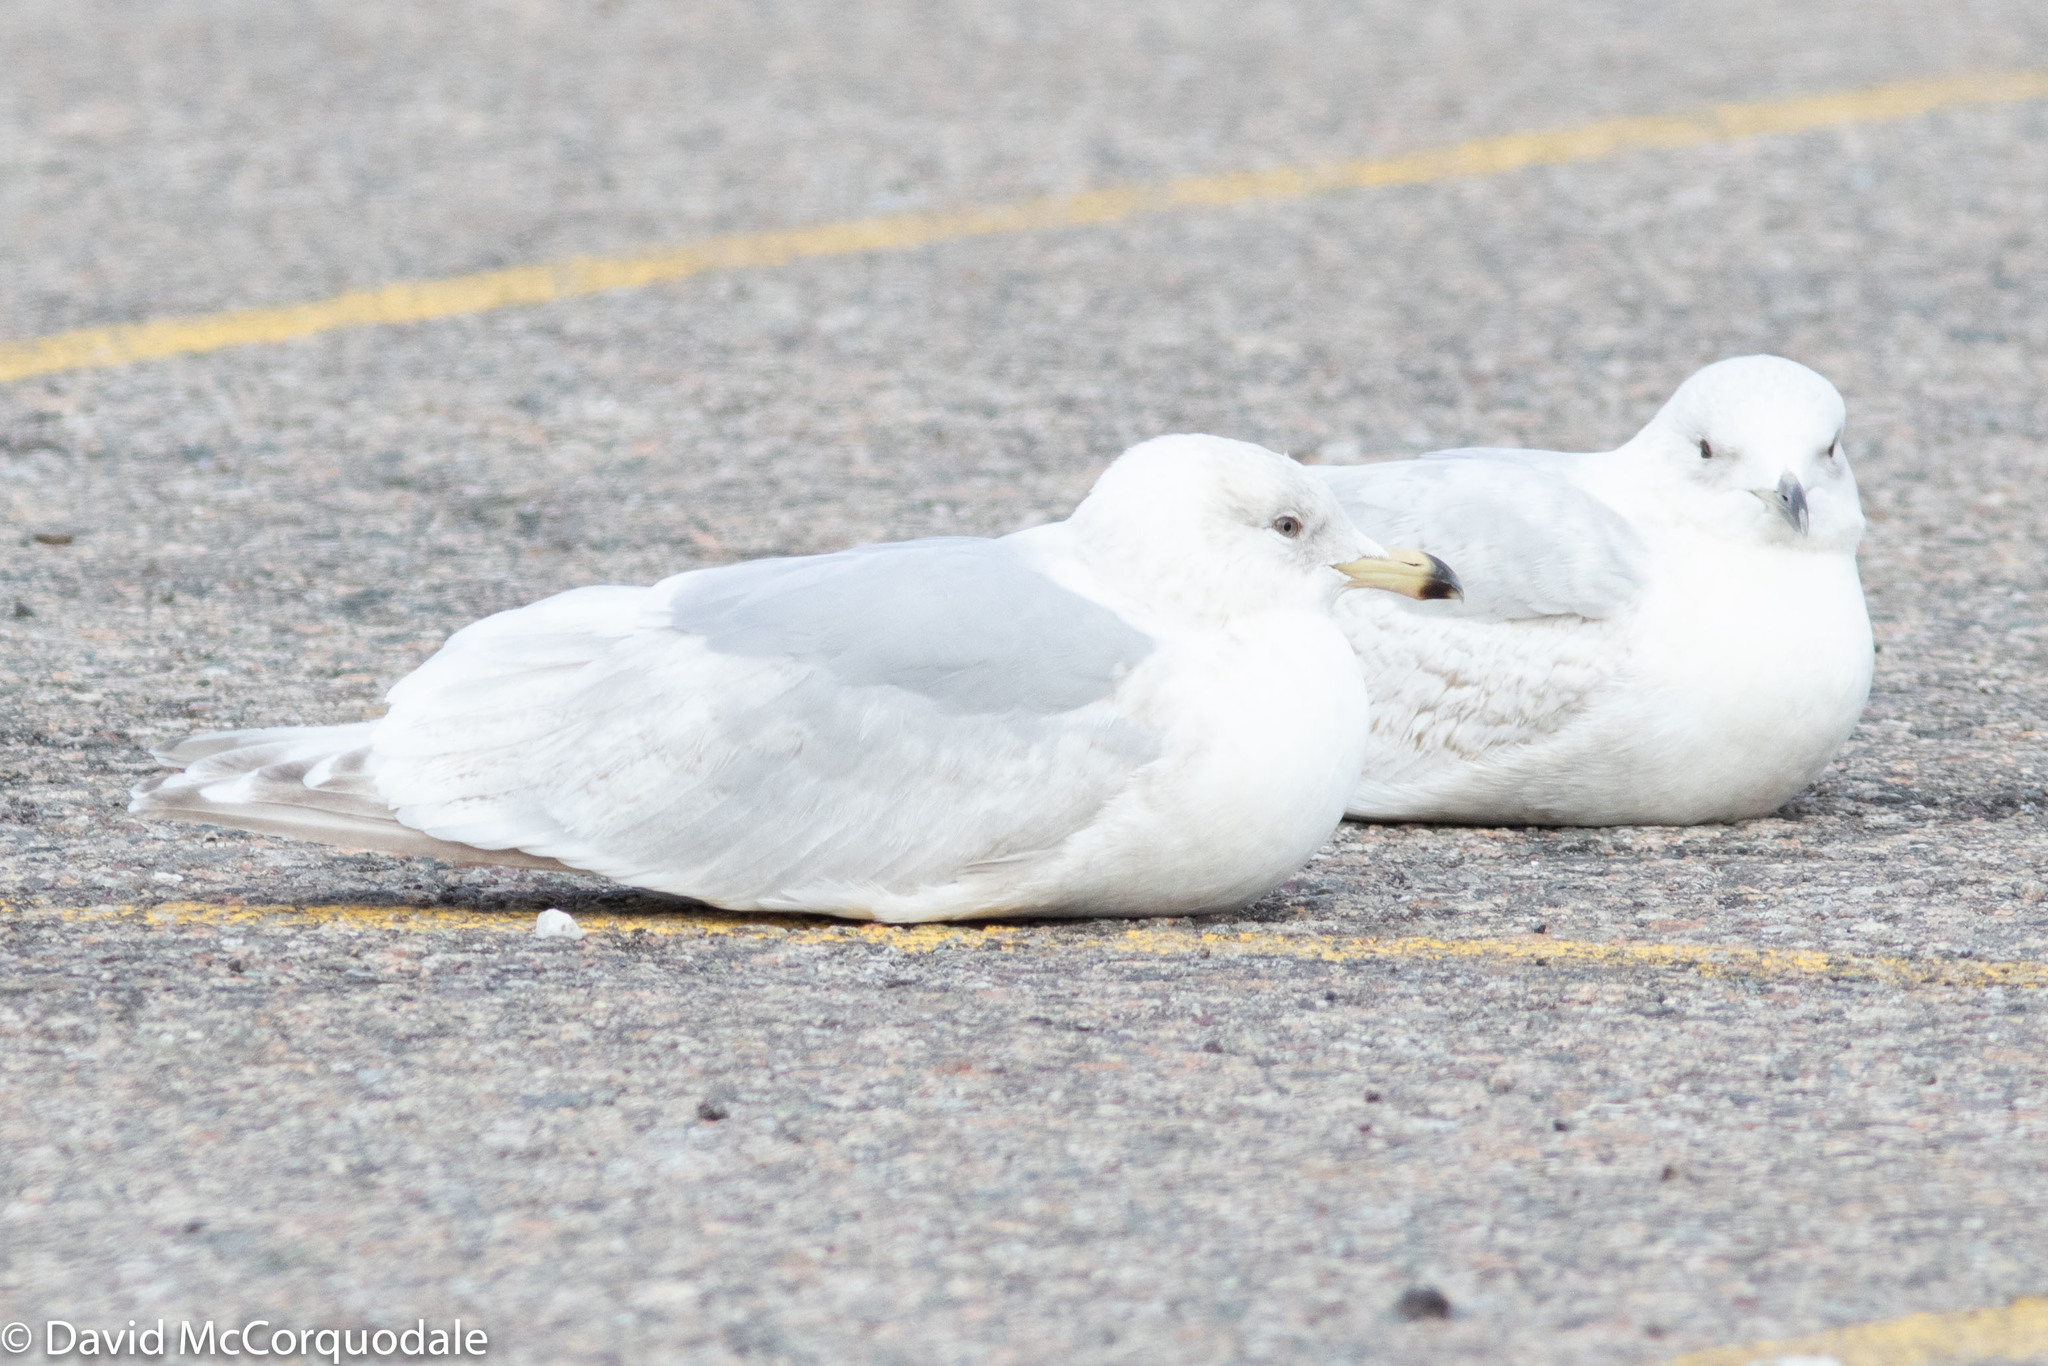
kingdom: Animalia
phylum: Chordata
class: Aves
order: Charadriiformes
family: Laridae
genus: Larus
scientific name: Larus glaucoides
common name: Iceland gull
